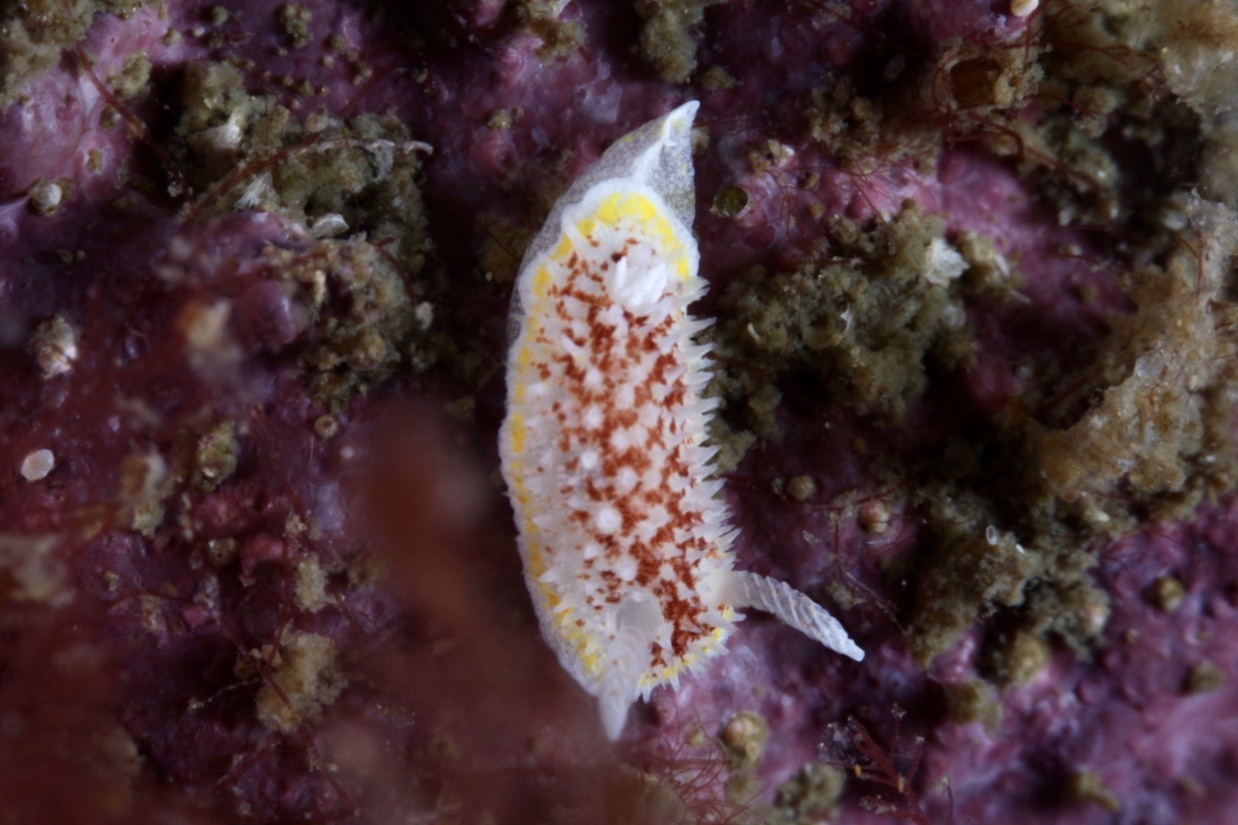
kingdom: Animalia
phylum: Mollusca
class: Gastropoda
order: Nudibranchia
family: Calycidorididae
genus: Diaphorodoris
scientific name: Diaphorodoris luteocincta
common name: Fried egg nudibranch
